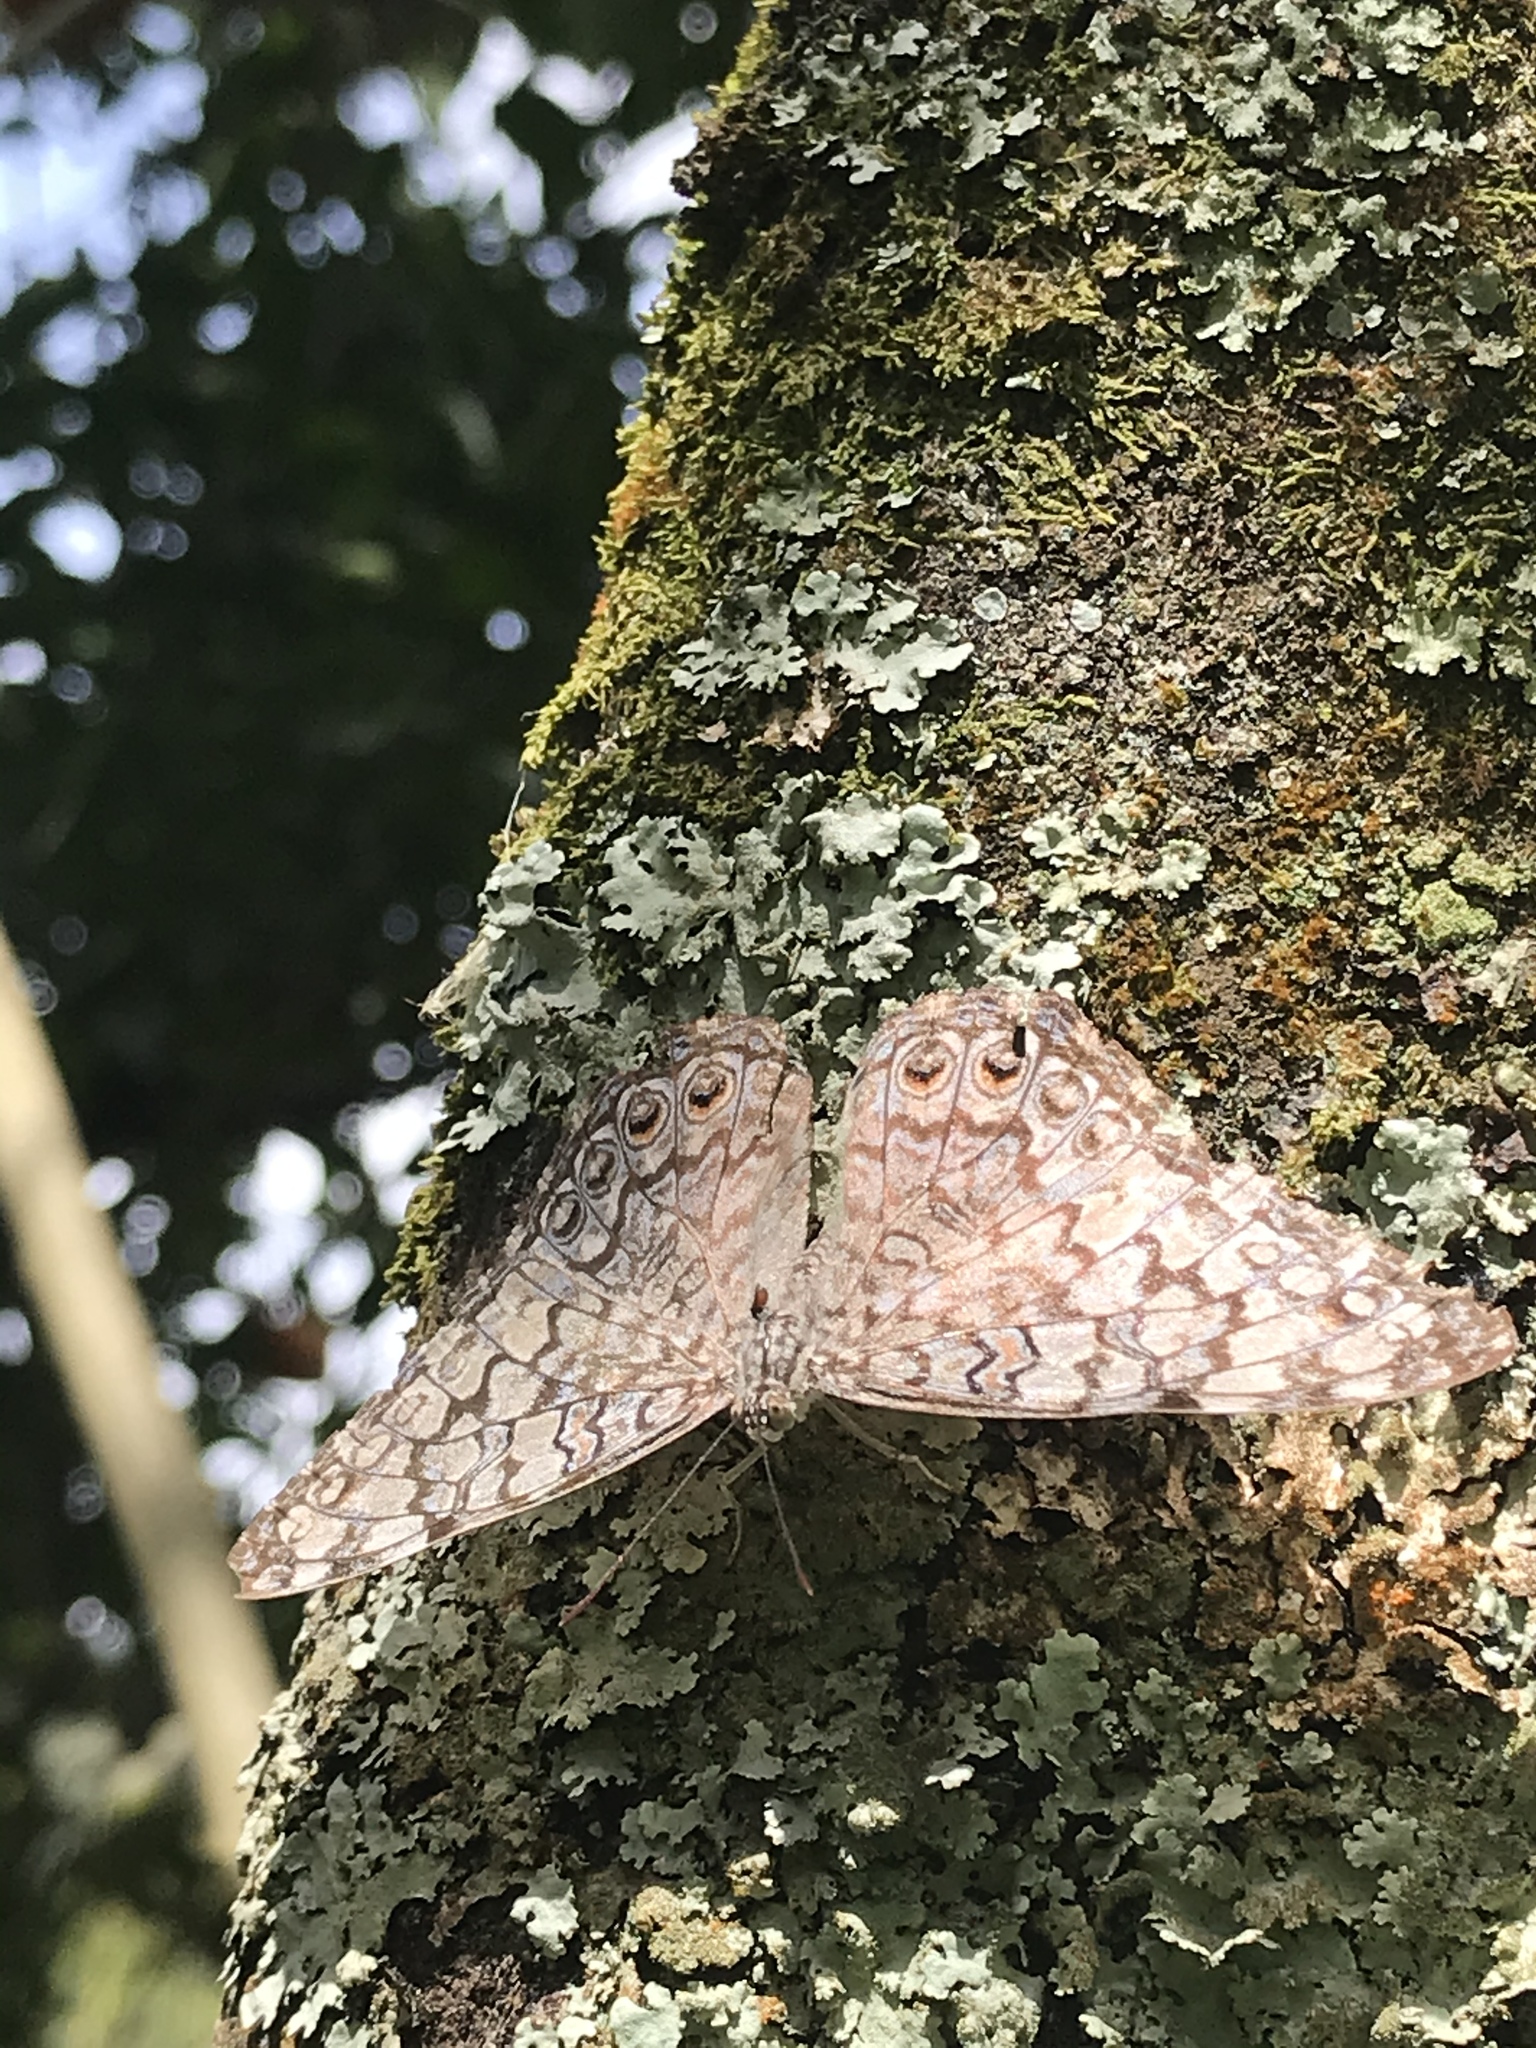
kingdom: Animalia
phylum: Arthropoda
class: Insecta
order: Lepidoptera
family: Nymphalidae
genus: Hamadryas
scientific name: Hamadryas februa
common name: Gray cracker
